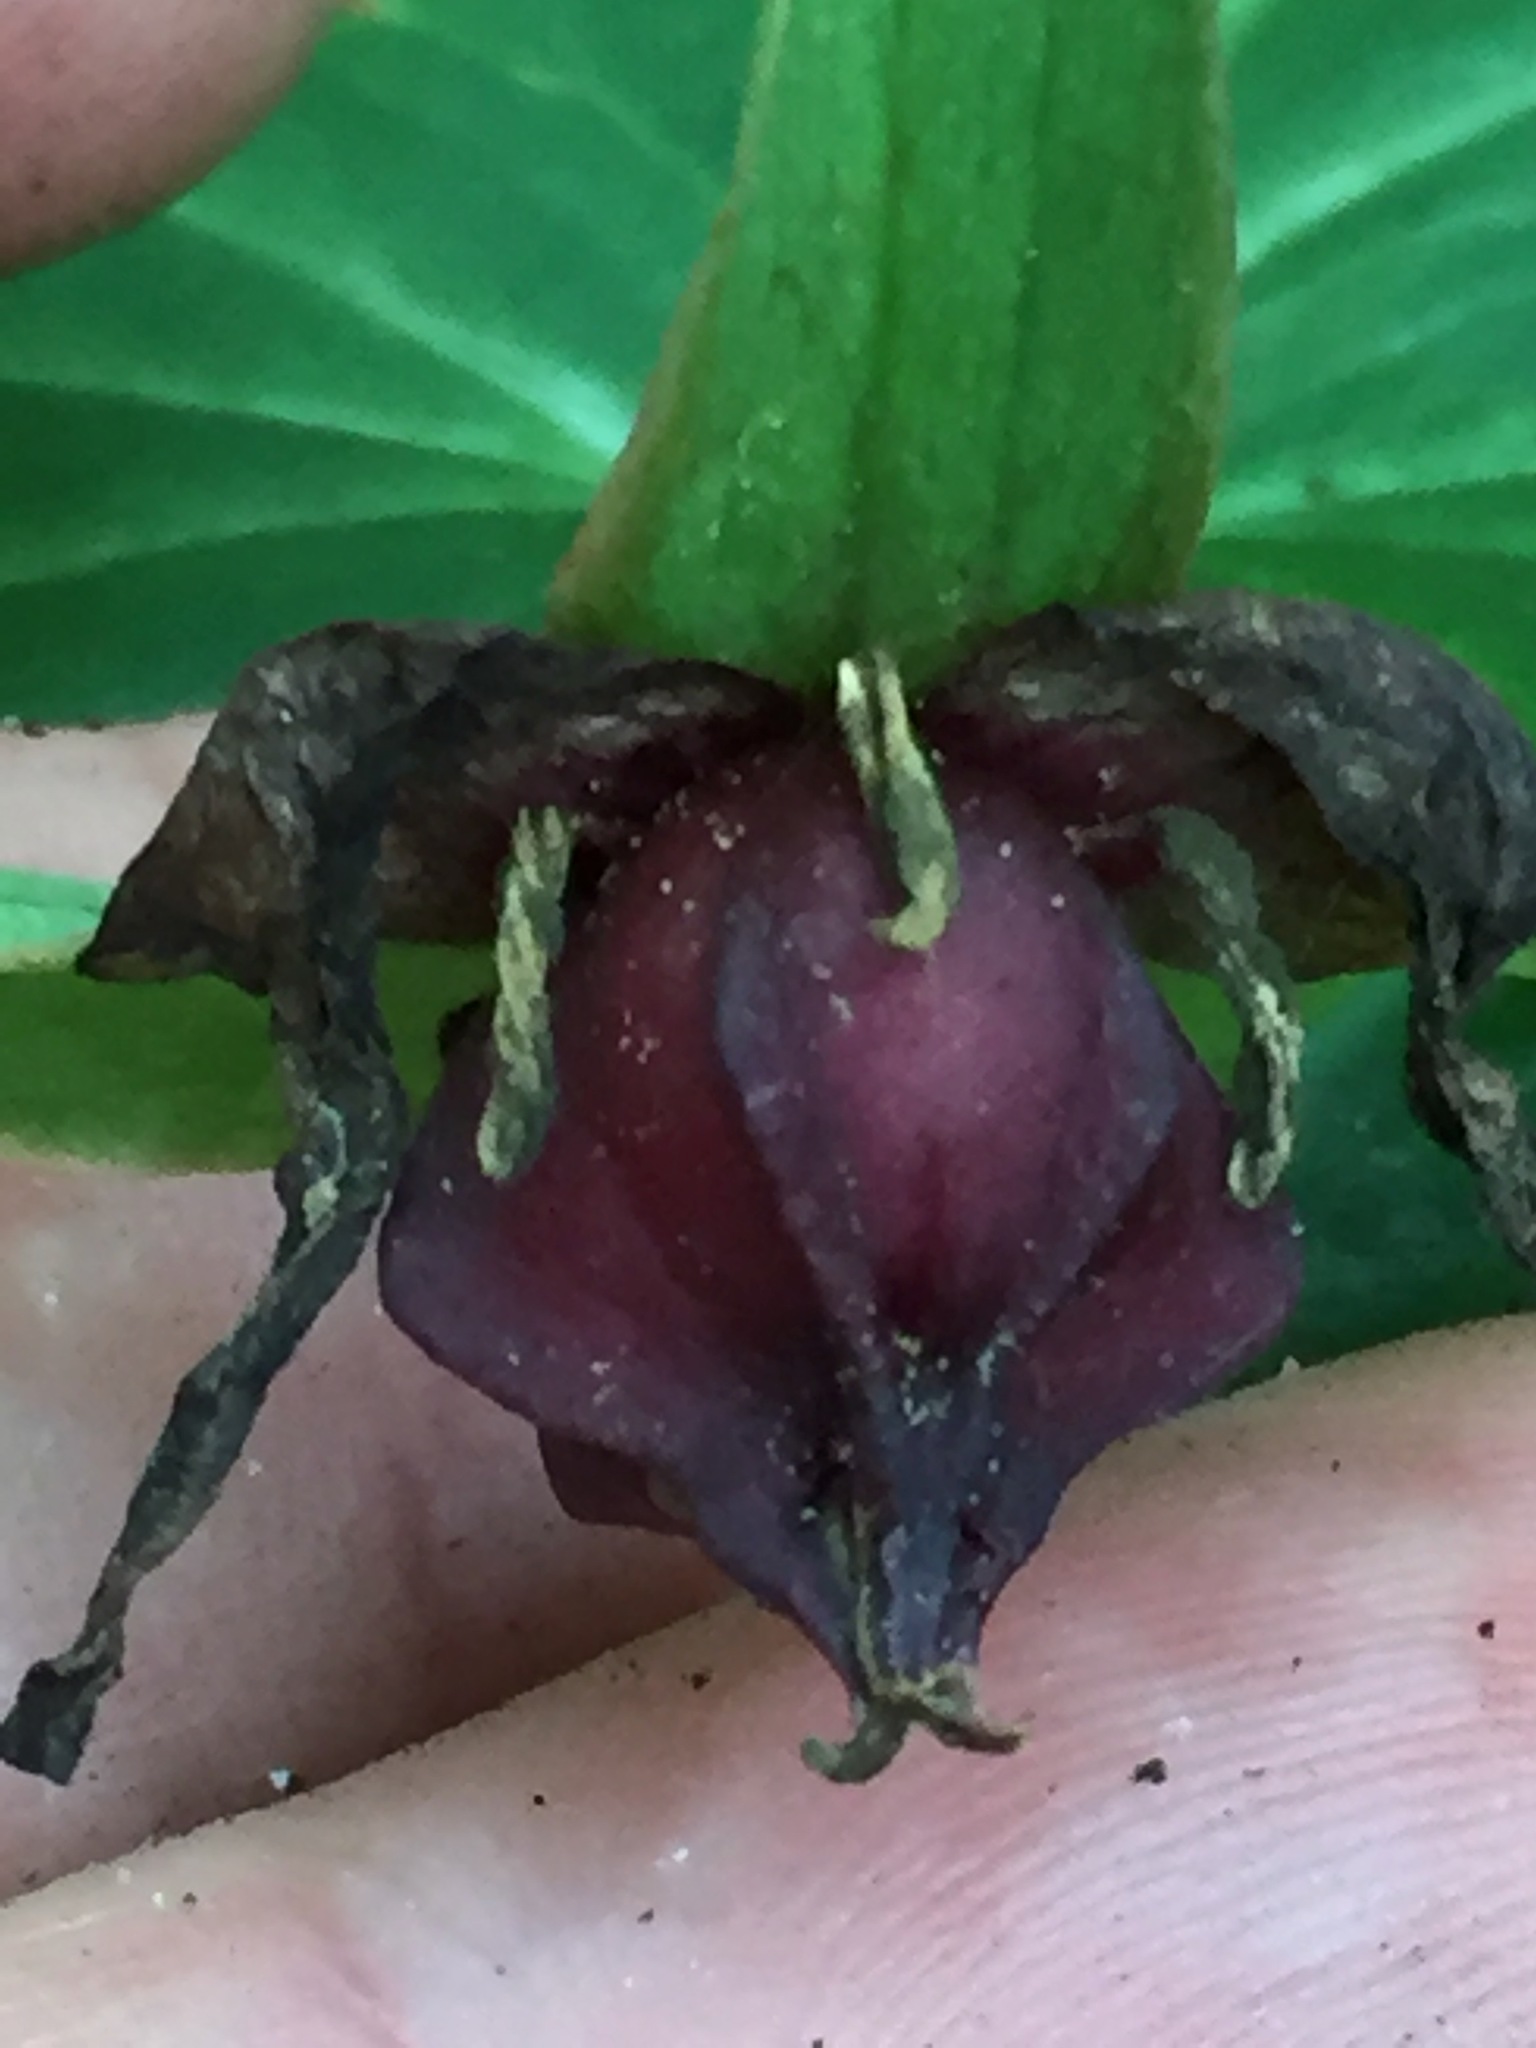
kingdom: Plantae
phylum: Tracheophyta
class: Liliopsida
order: Liliales
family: Melanthiaceae
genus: Trillium
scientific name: Trillium erectum
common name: Purple trillium
